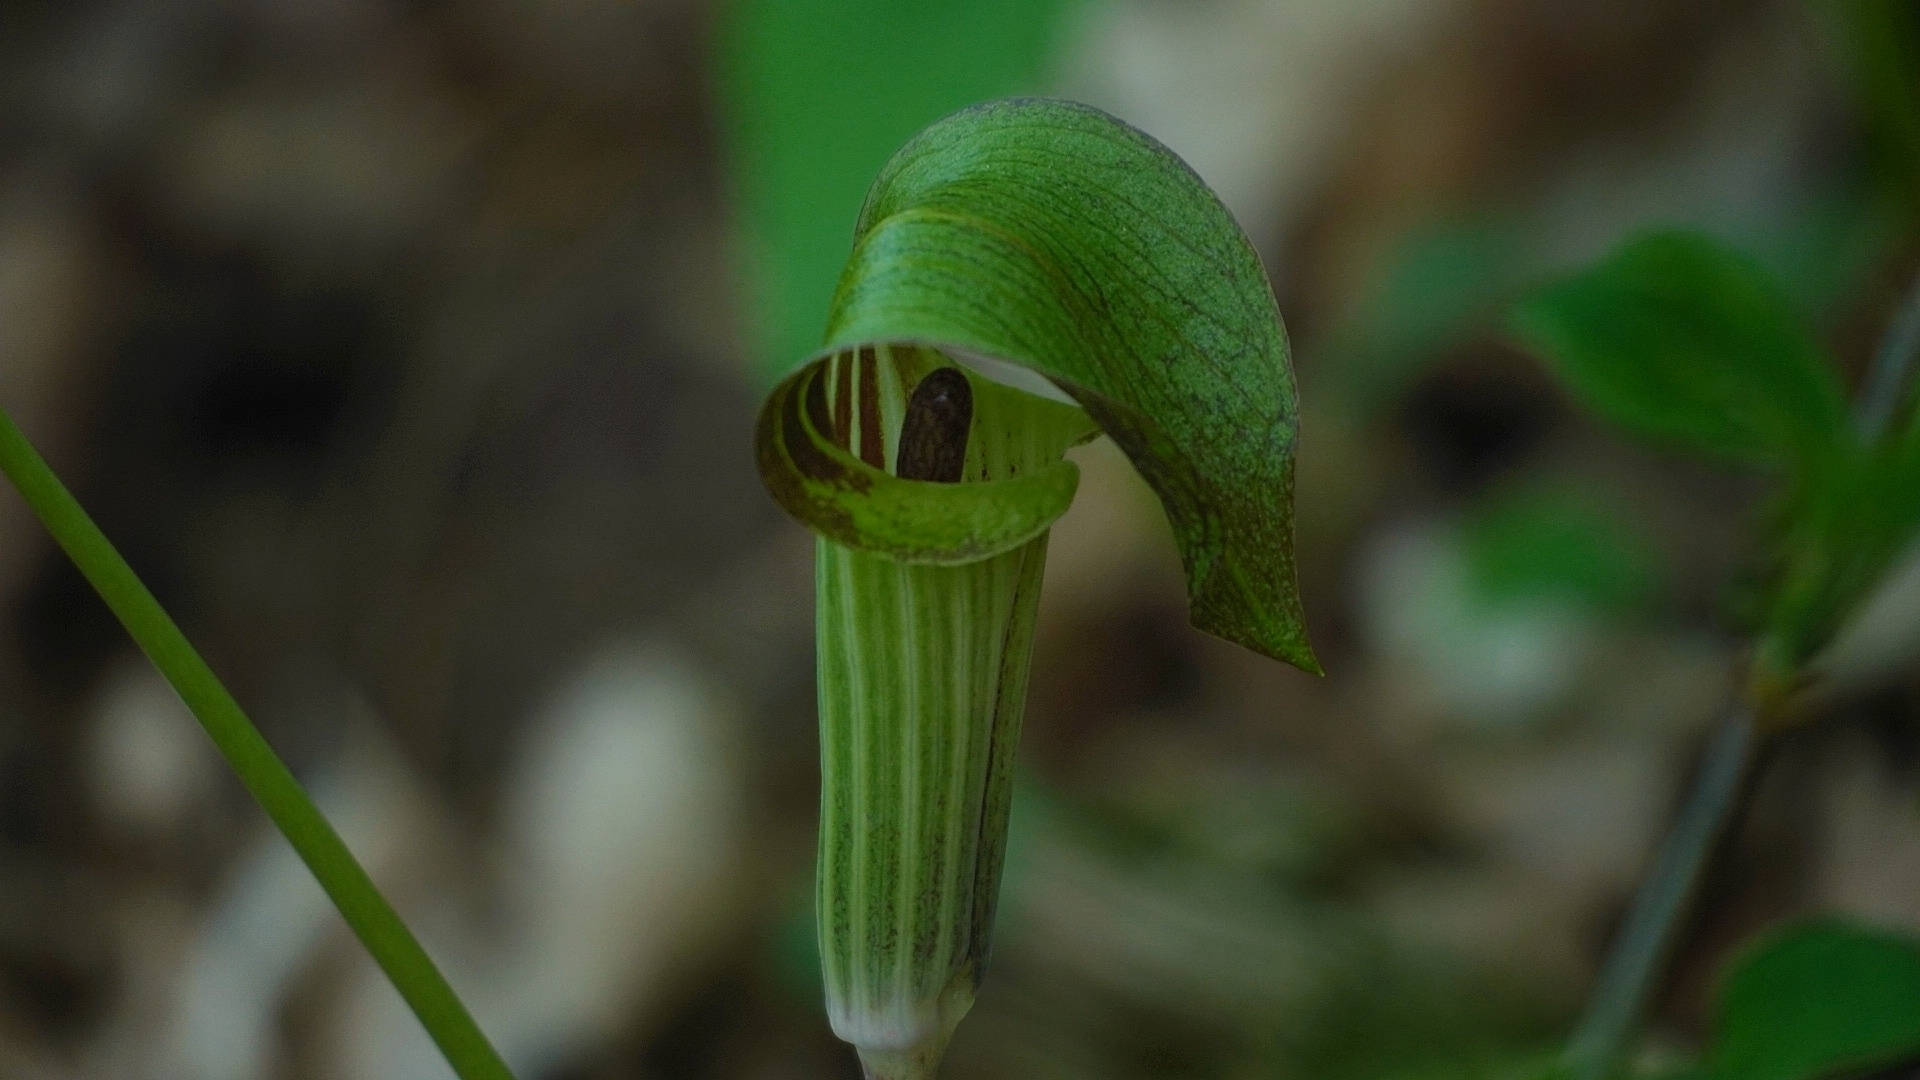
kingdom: Plantae
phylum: Tracheophyta
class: Liliopsida
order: Alismatales
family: Araceae
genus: Arisaema
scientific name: Arisaema triphyllum
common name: Jack-in-the-pulpit
